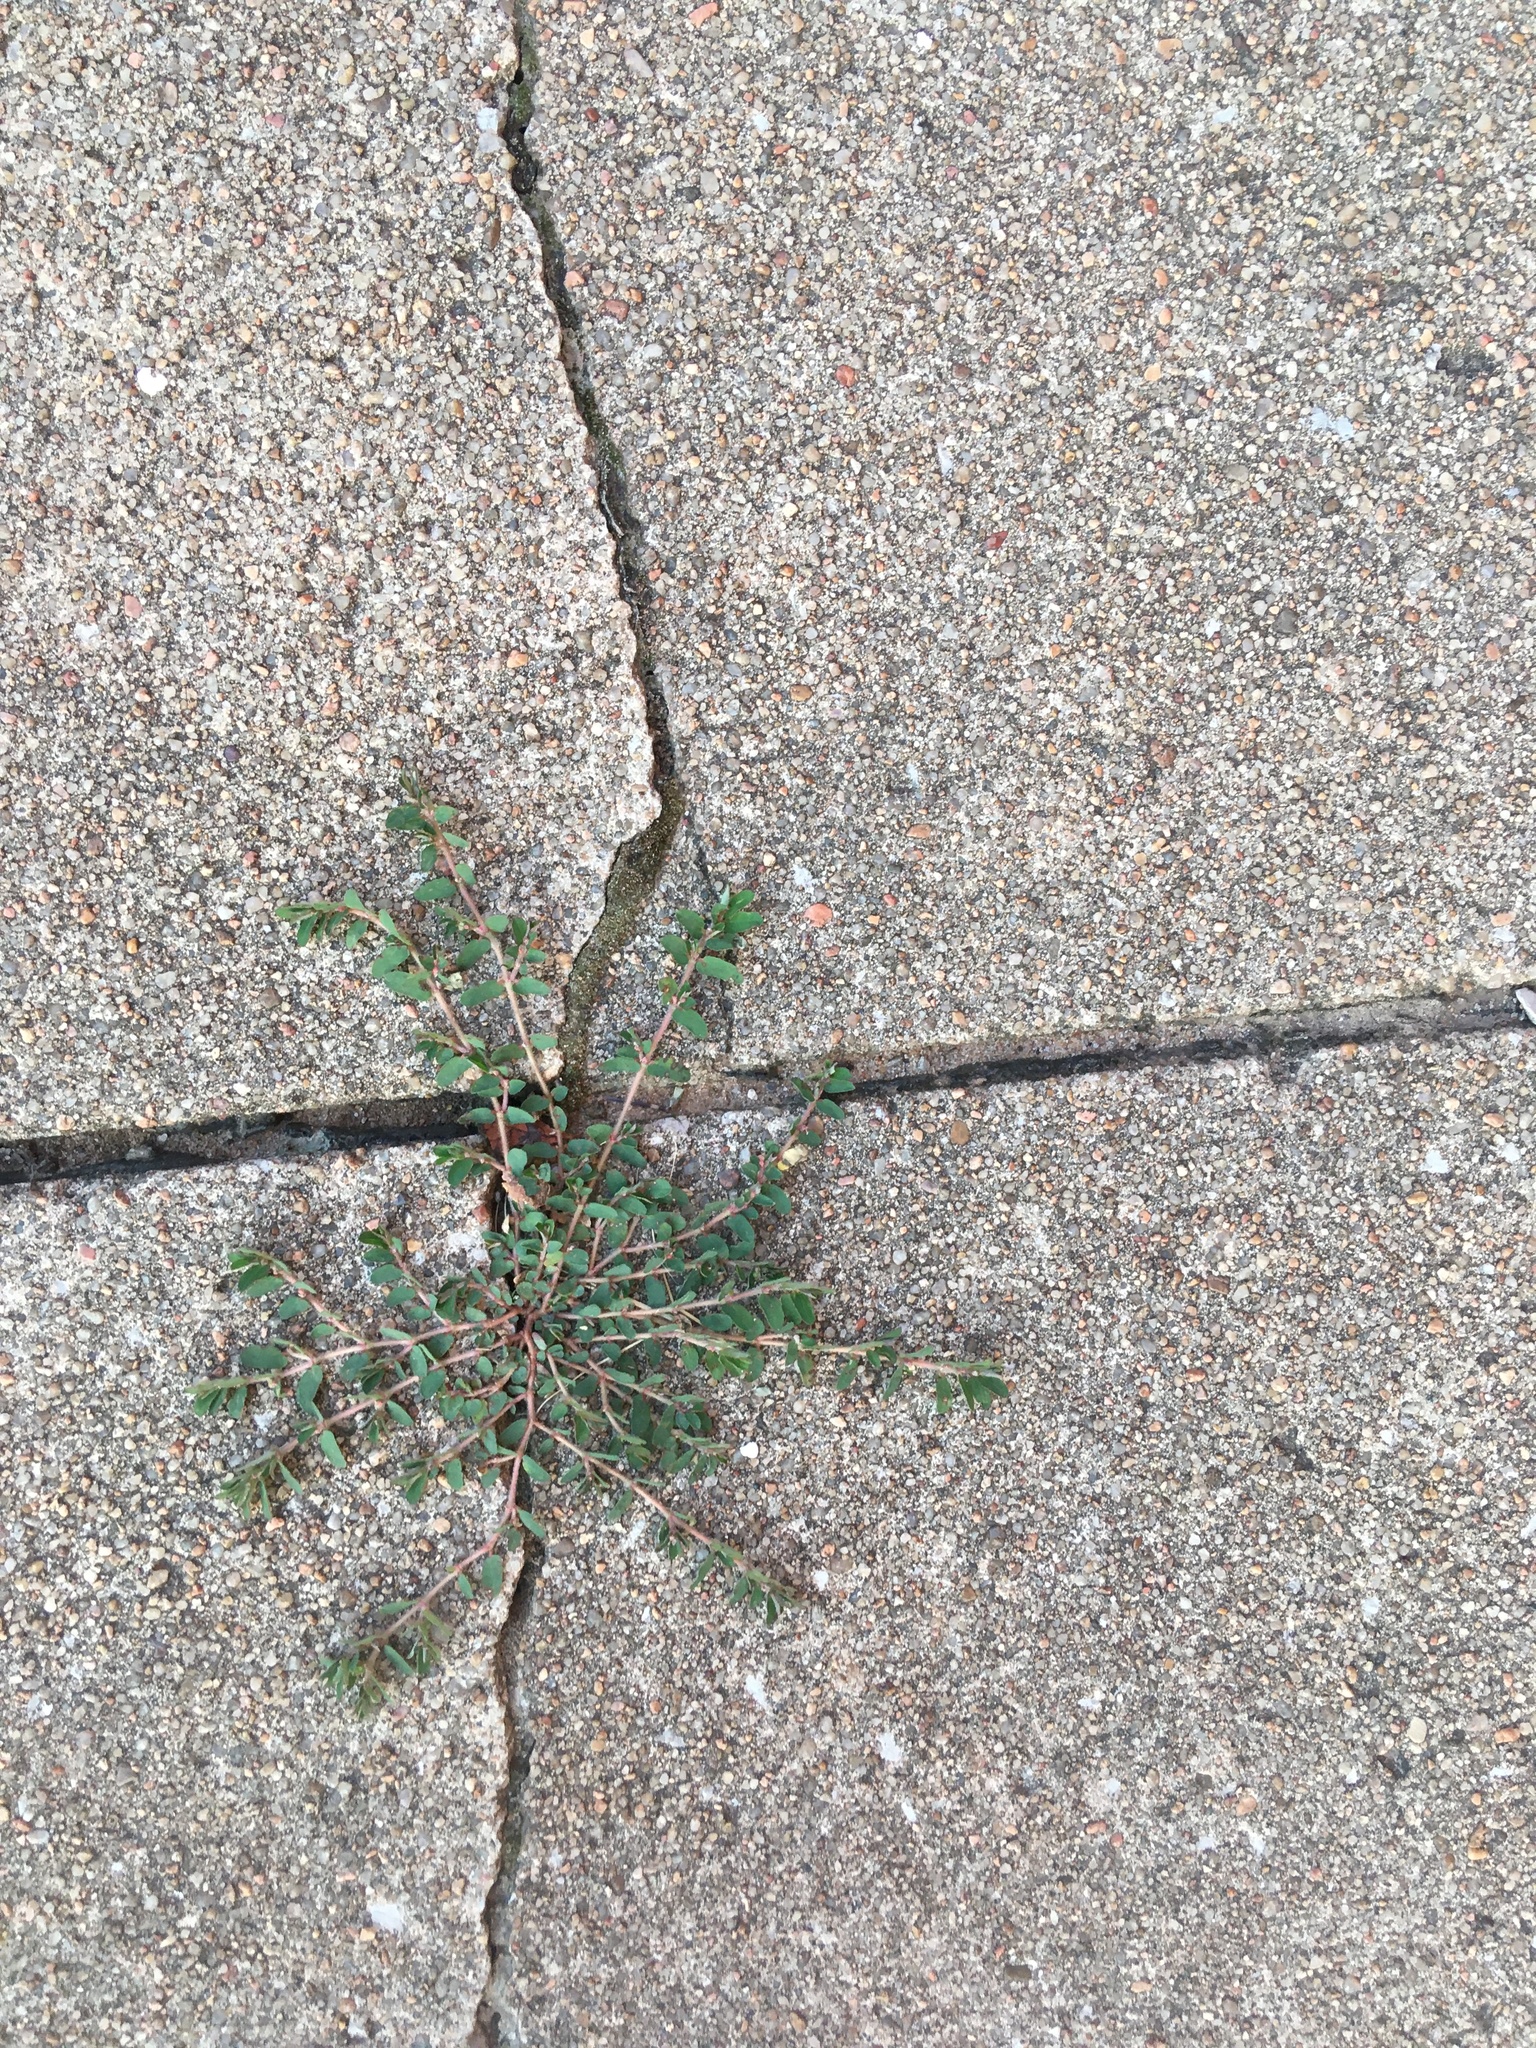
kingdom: Plantae
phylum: Tracheophyta
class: Magnoliopsida
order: Malpighiales
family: Euphorbiaceae
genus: Euphorbia
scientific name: Euphorbia maculata
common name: Spotted spurge
